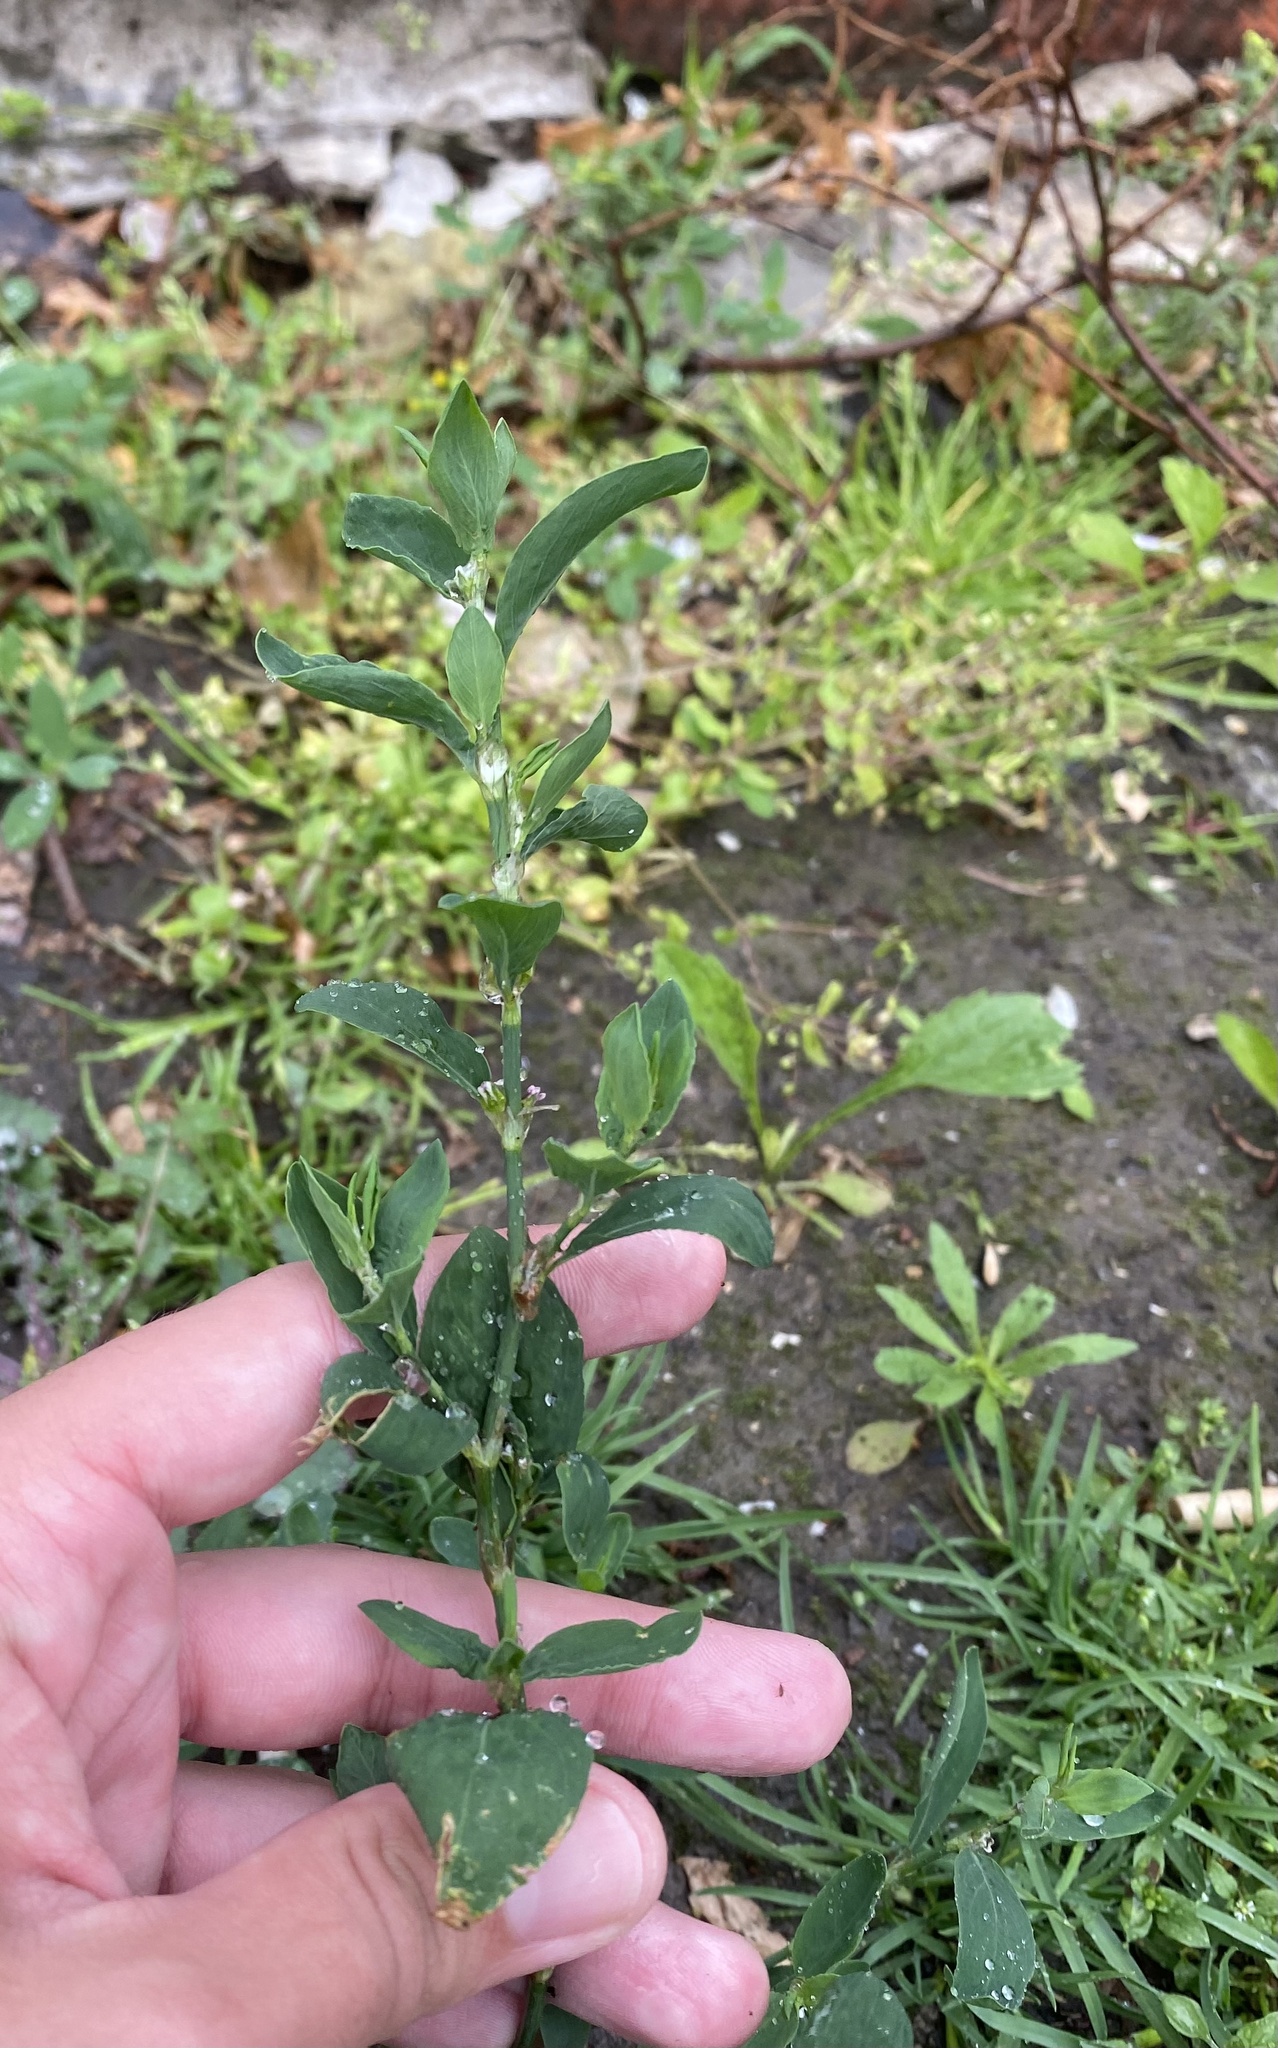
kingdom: Plantae
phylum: Tracheophyta
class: Magnoliopsida
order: Caryophyllales
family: Polygonaceae
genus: Polygonum
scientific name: Polygonum
